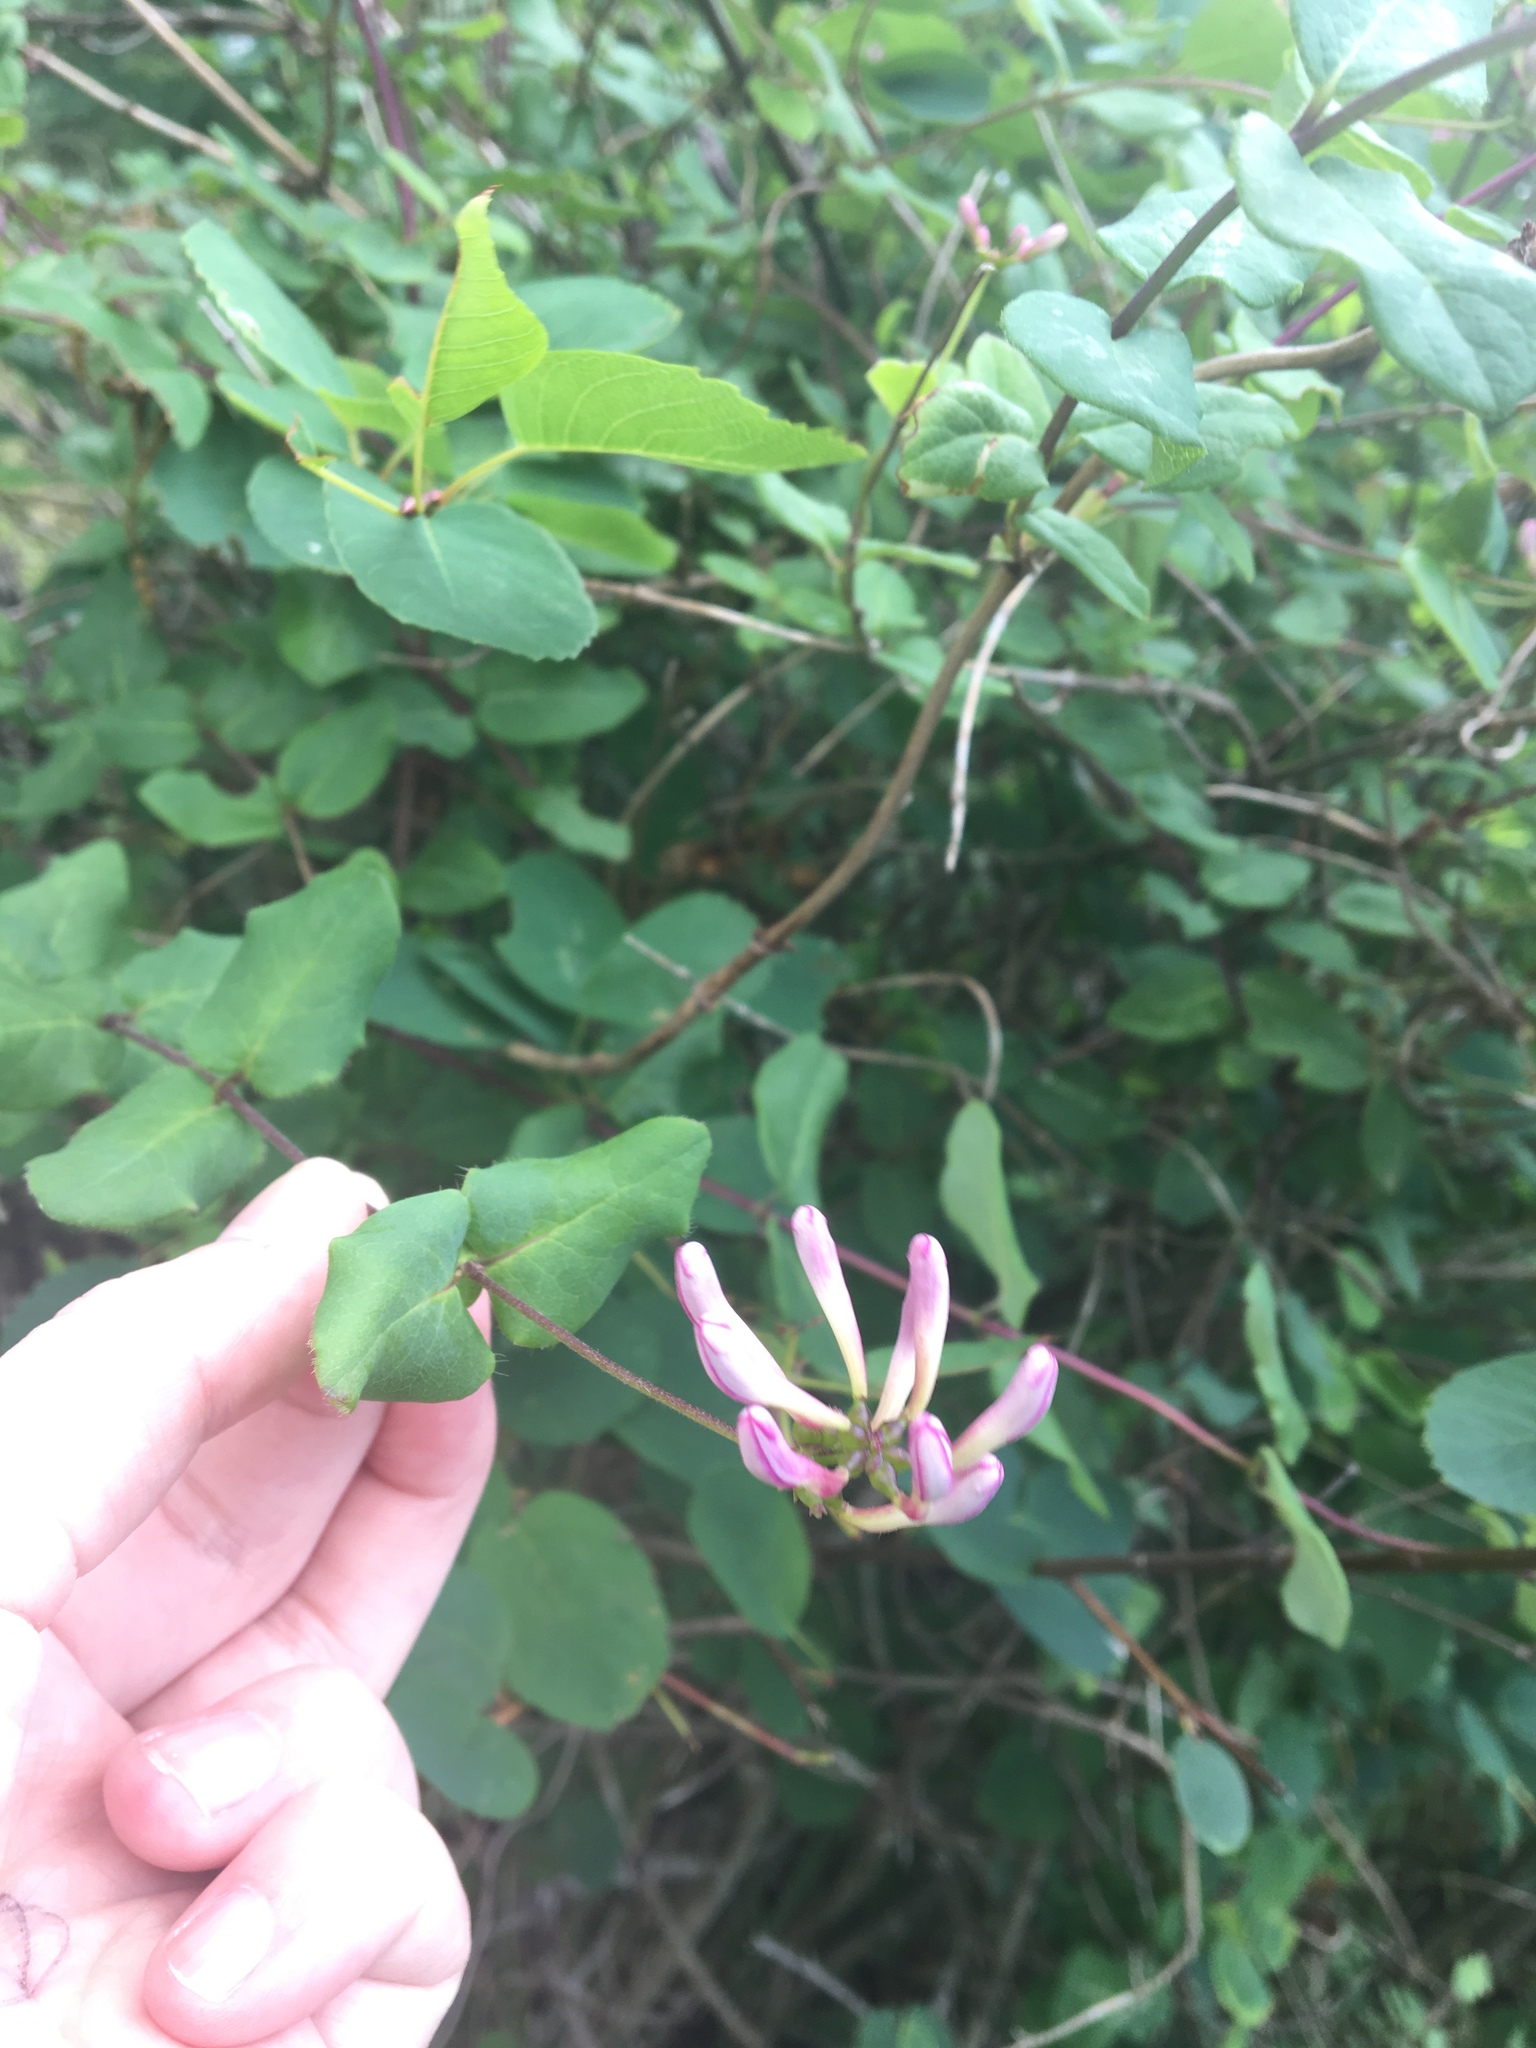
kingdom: Plantae
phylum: Tracheophyta
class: Magnoliopsida
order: Dipsacales
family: Caprifoliaceae
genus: Lonicera
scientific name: Lonicera hispidula
